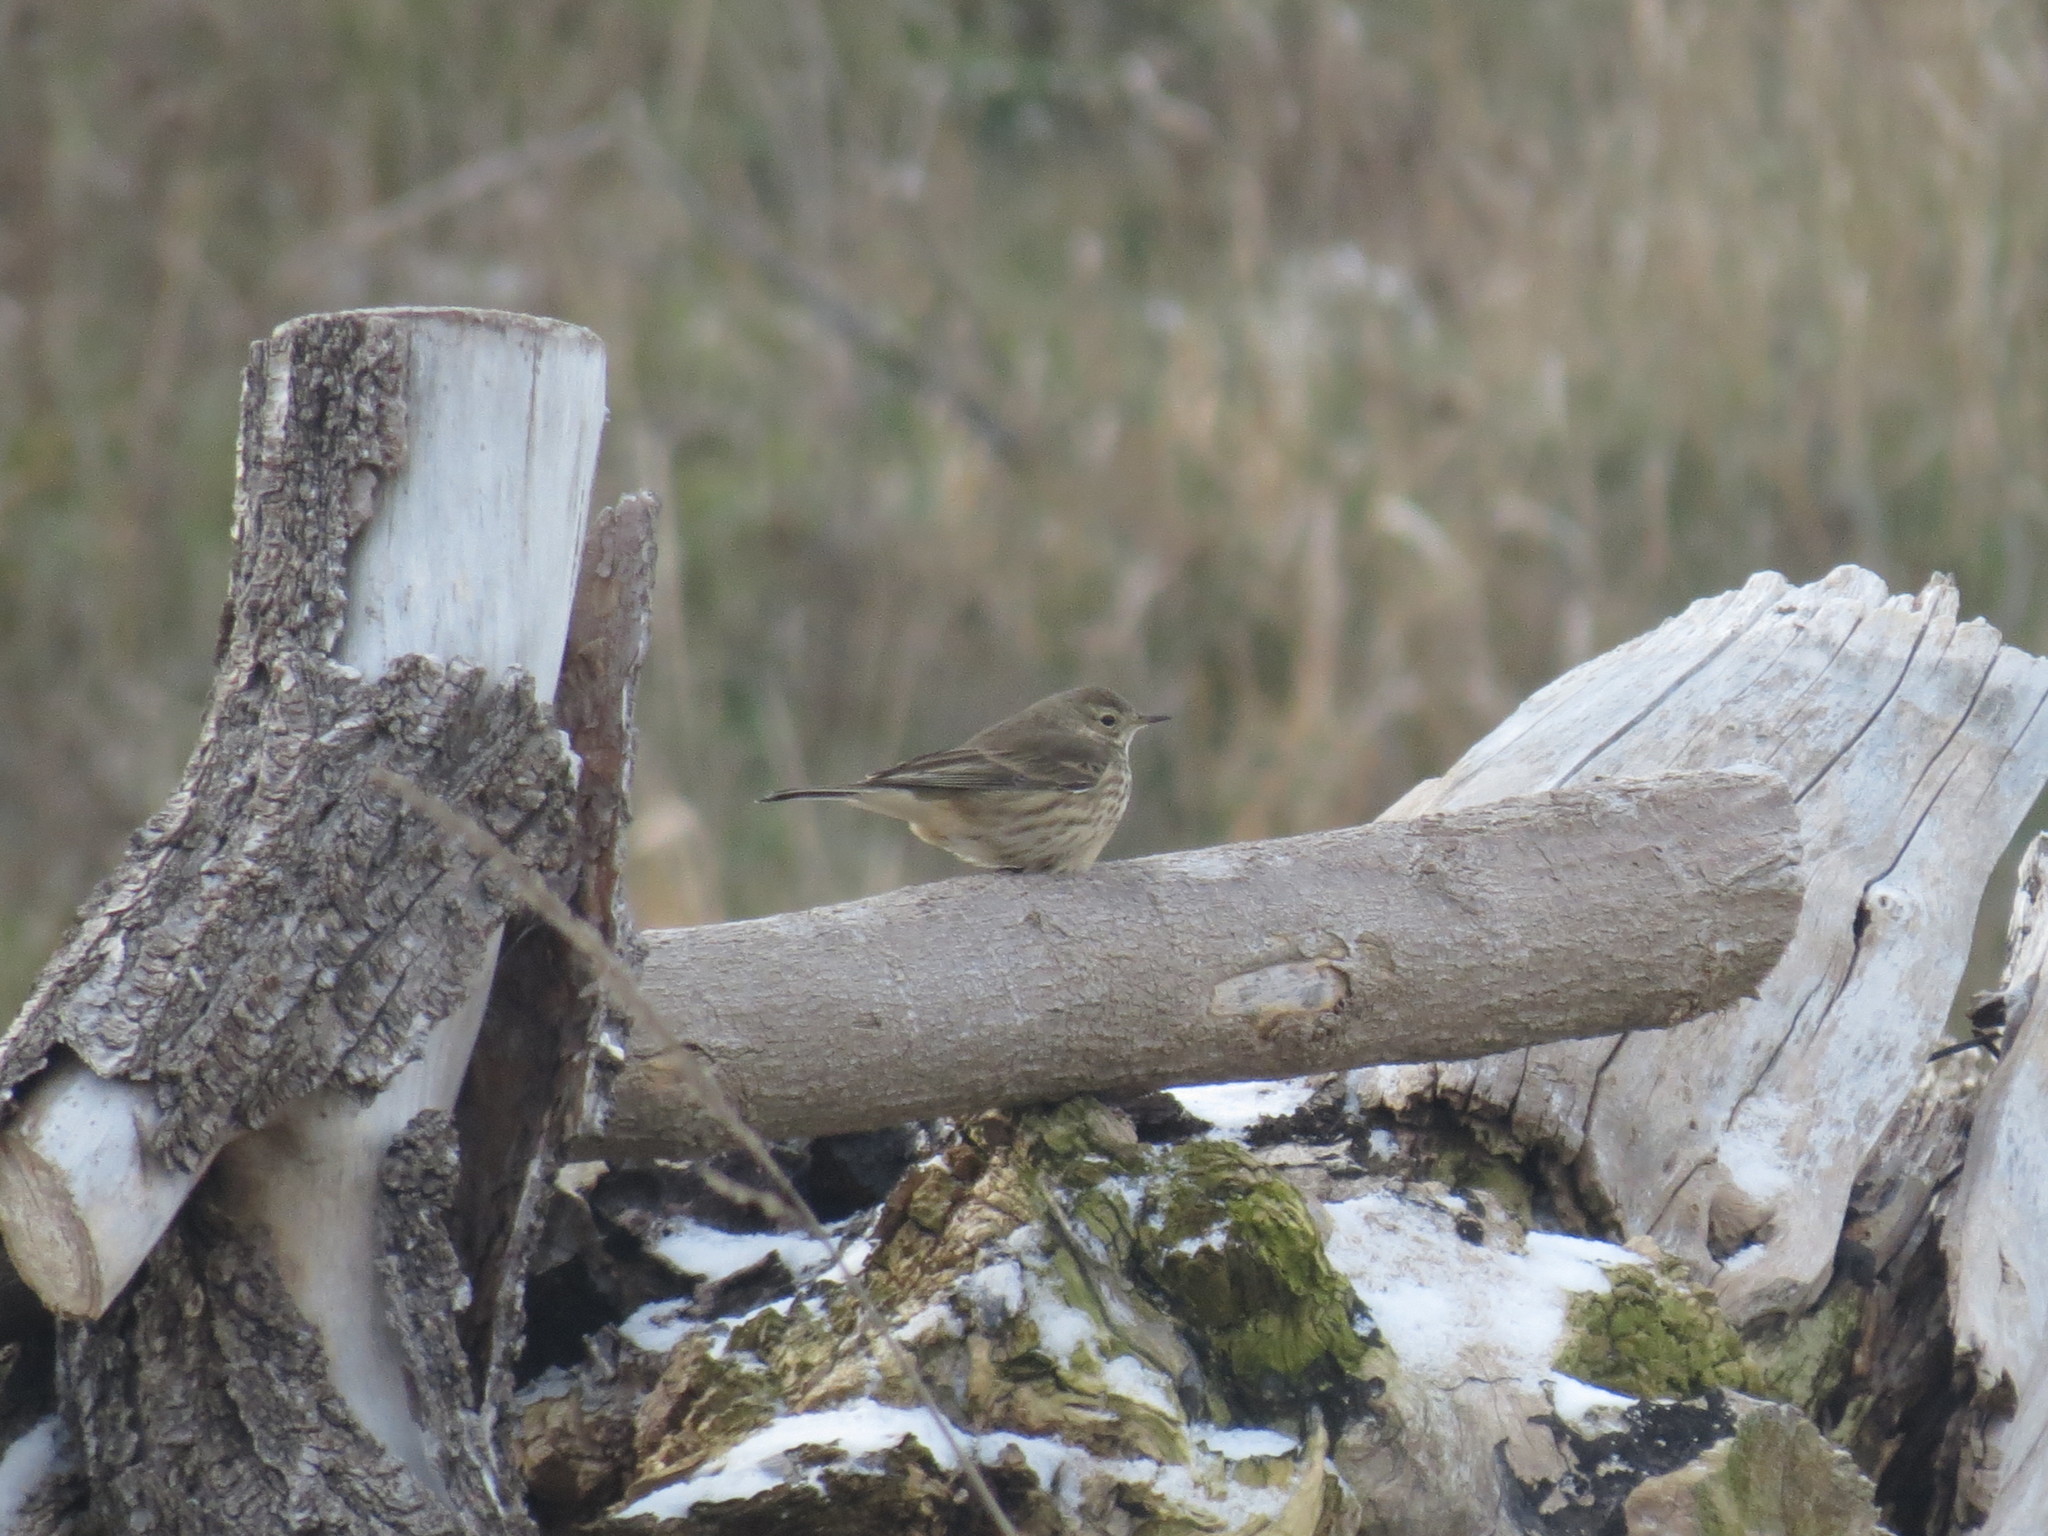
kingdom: Animalia
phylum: Chordata
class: Aves
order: Passeriformes
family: Motacillidae
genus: Anthus
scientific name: Anthus rubescens
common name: Buff-bellied pipit
